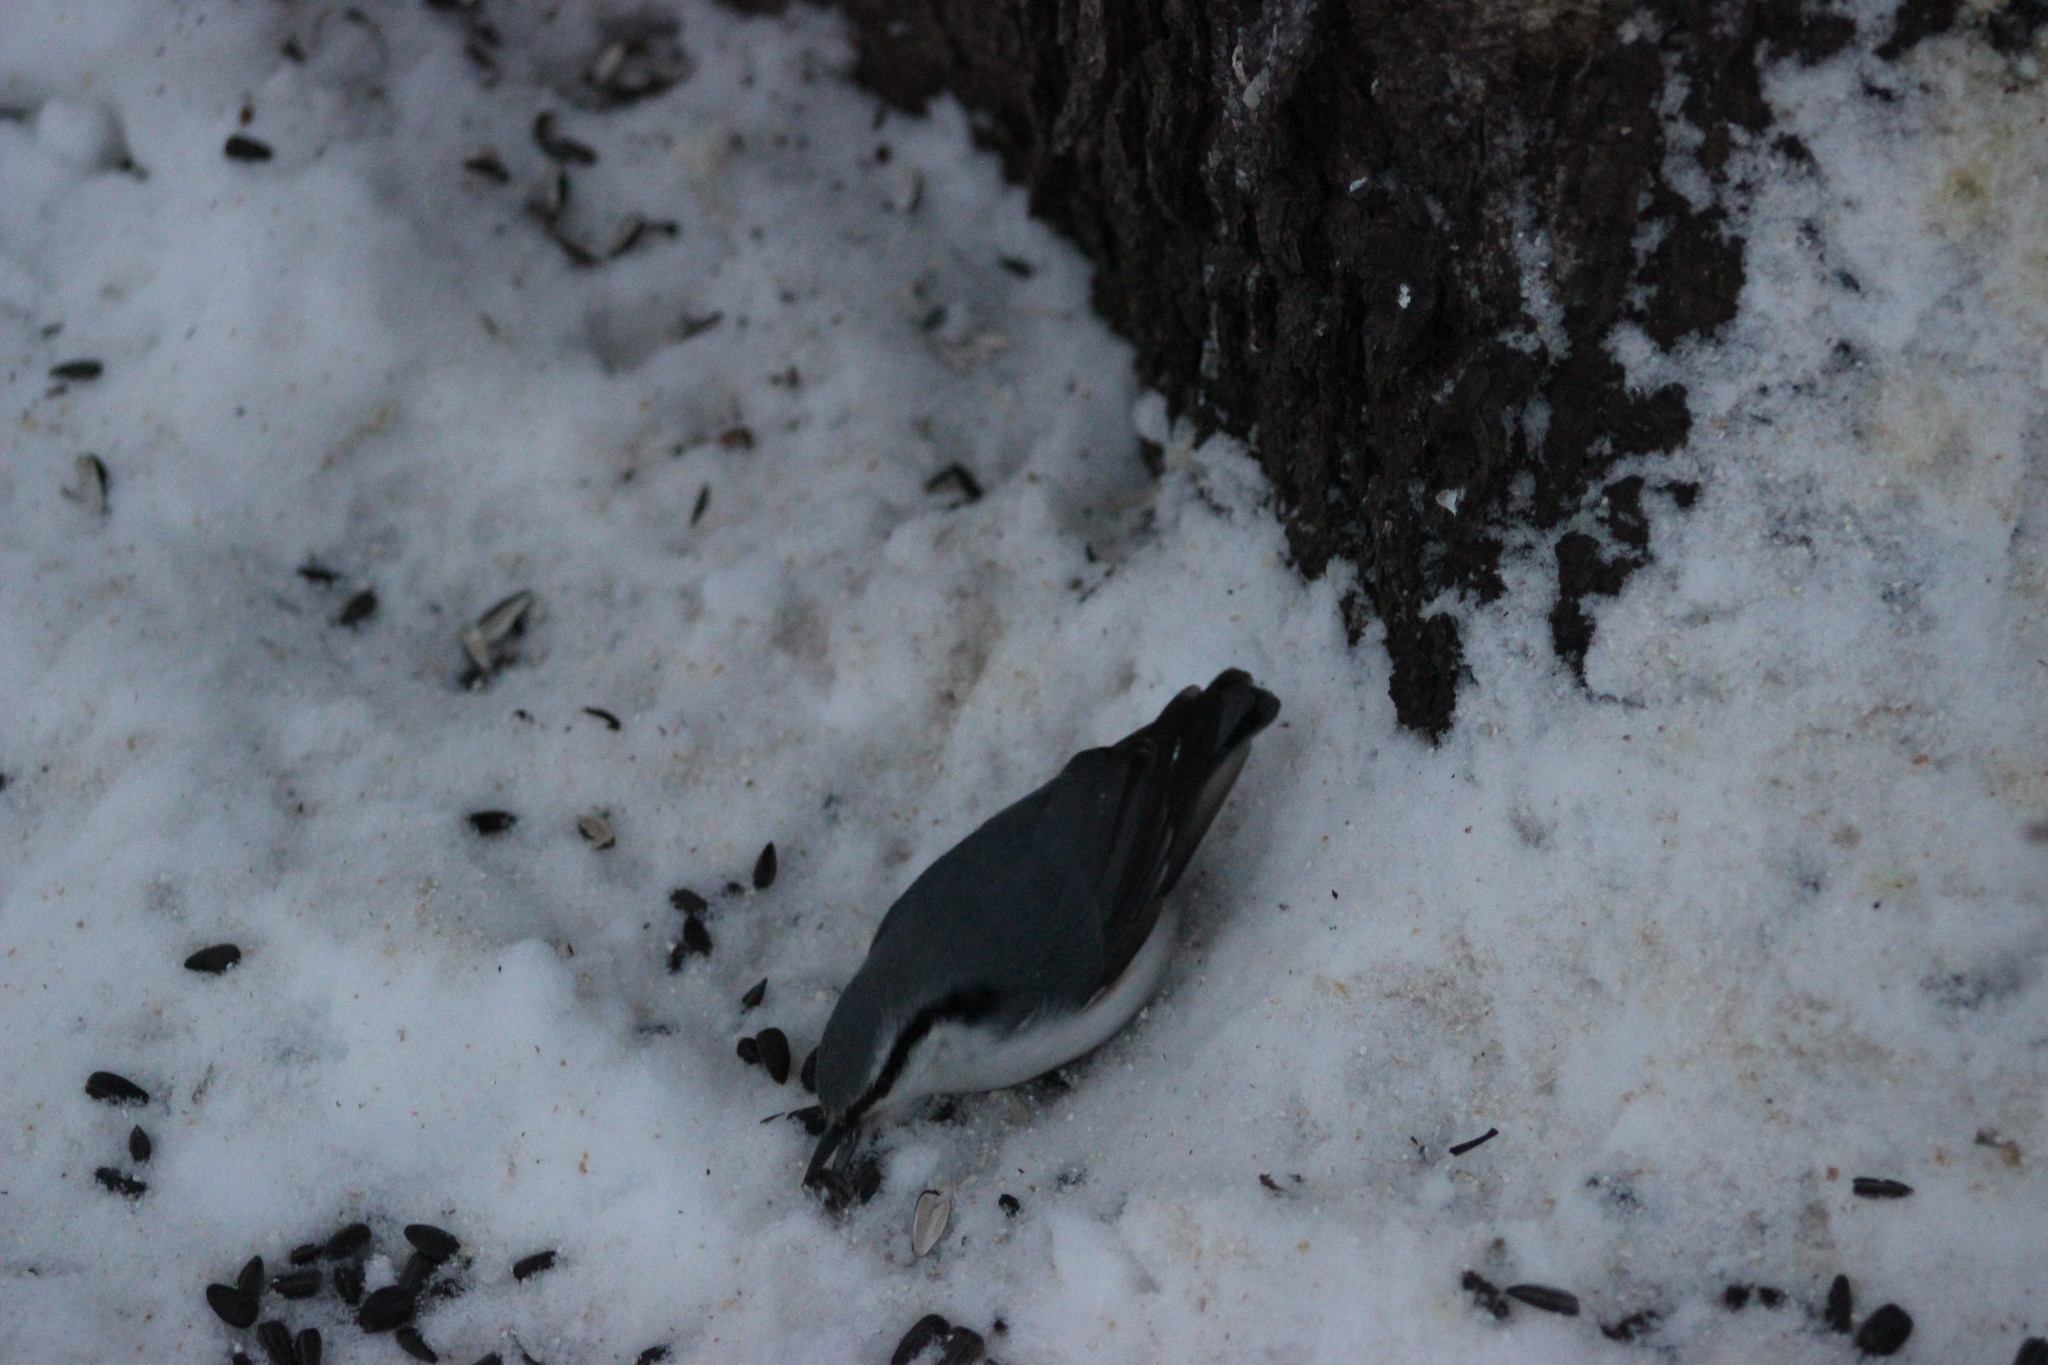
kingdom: Animalia
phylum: Chordata
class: Aves
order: Passeriformes
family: Sittidae
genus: Sitta
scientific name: Sitta europaea
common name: Eurasian nuthatch
